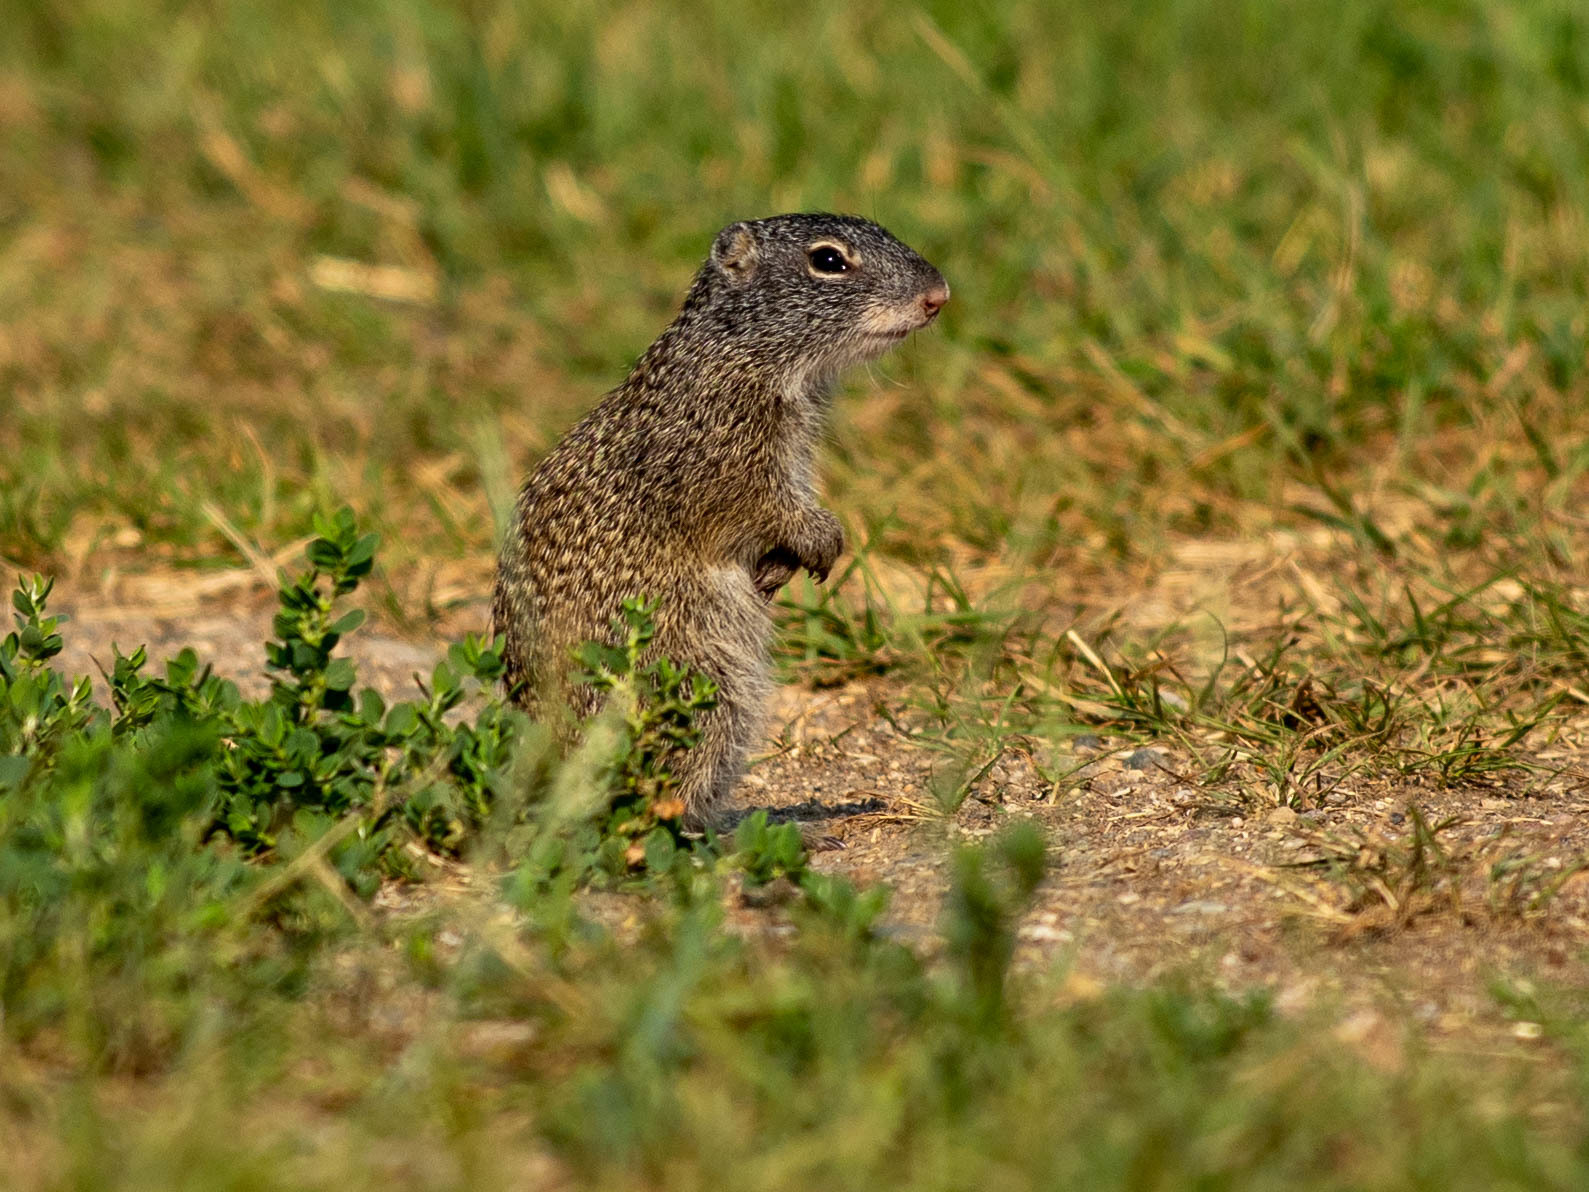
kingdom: Animalia
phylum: Chordata
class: Mammalia
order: Rodentia
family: Sciuridae
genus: Poliocitellus
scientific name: Poliocitellus franklinii
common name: Franklin's ground squirrel
